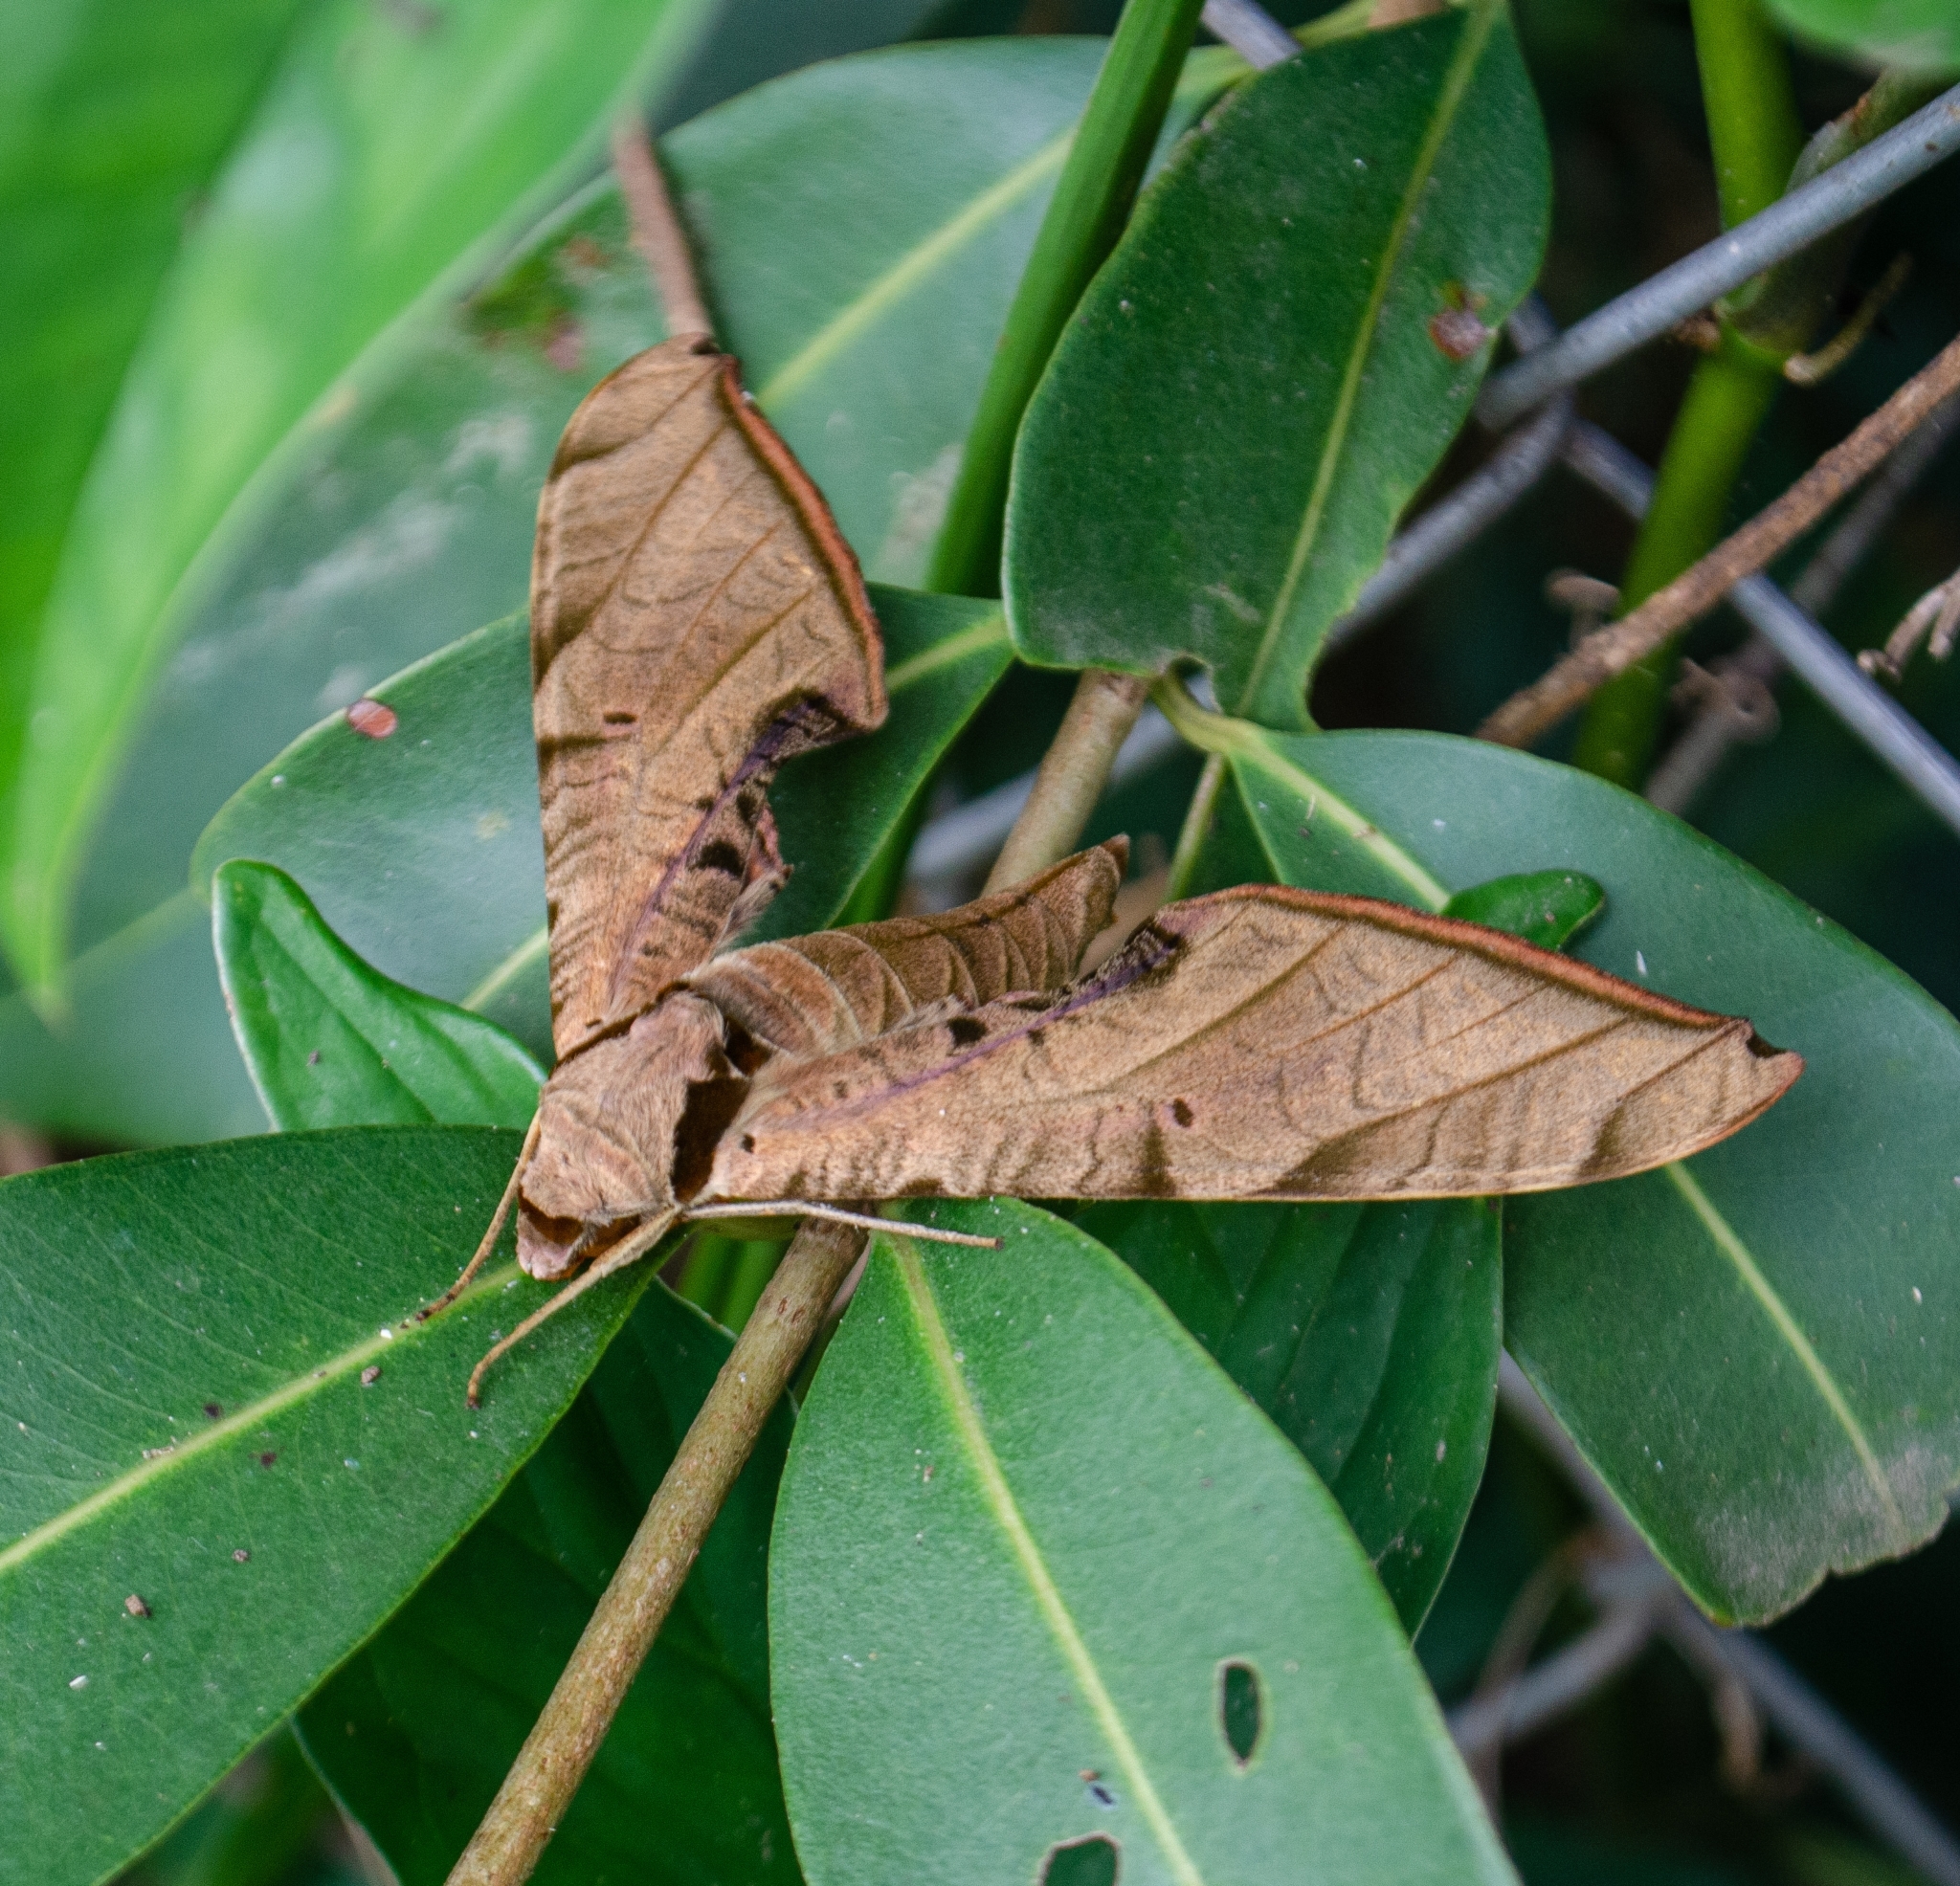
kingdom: Animalia
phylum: Arthropoda
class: Insecta
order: Lepidoptera
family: Sphingidae
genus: Protambulyx
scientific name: Protambulyx strigilis
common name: Streaked sphinx
